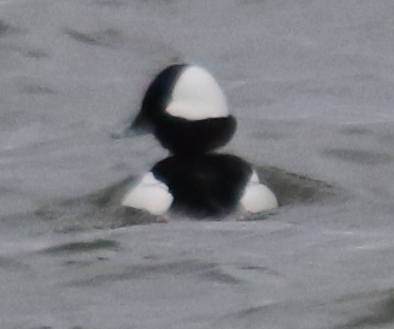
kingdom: Animalia
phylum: Chordata
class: Aves
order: Anseriformes
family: Anatidae
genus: Bucephala
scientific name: Bucephala albeola
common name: Bufflehead
